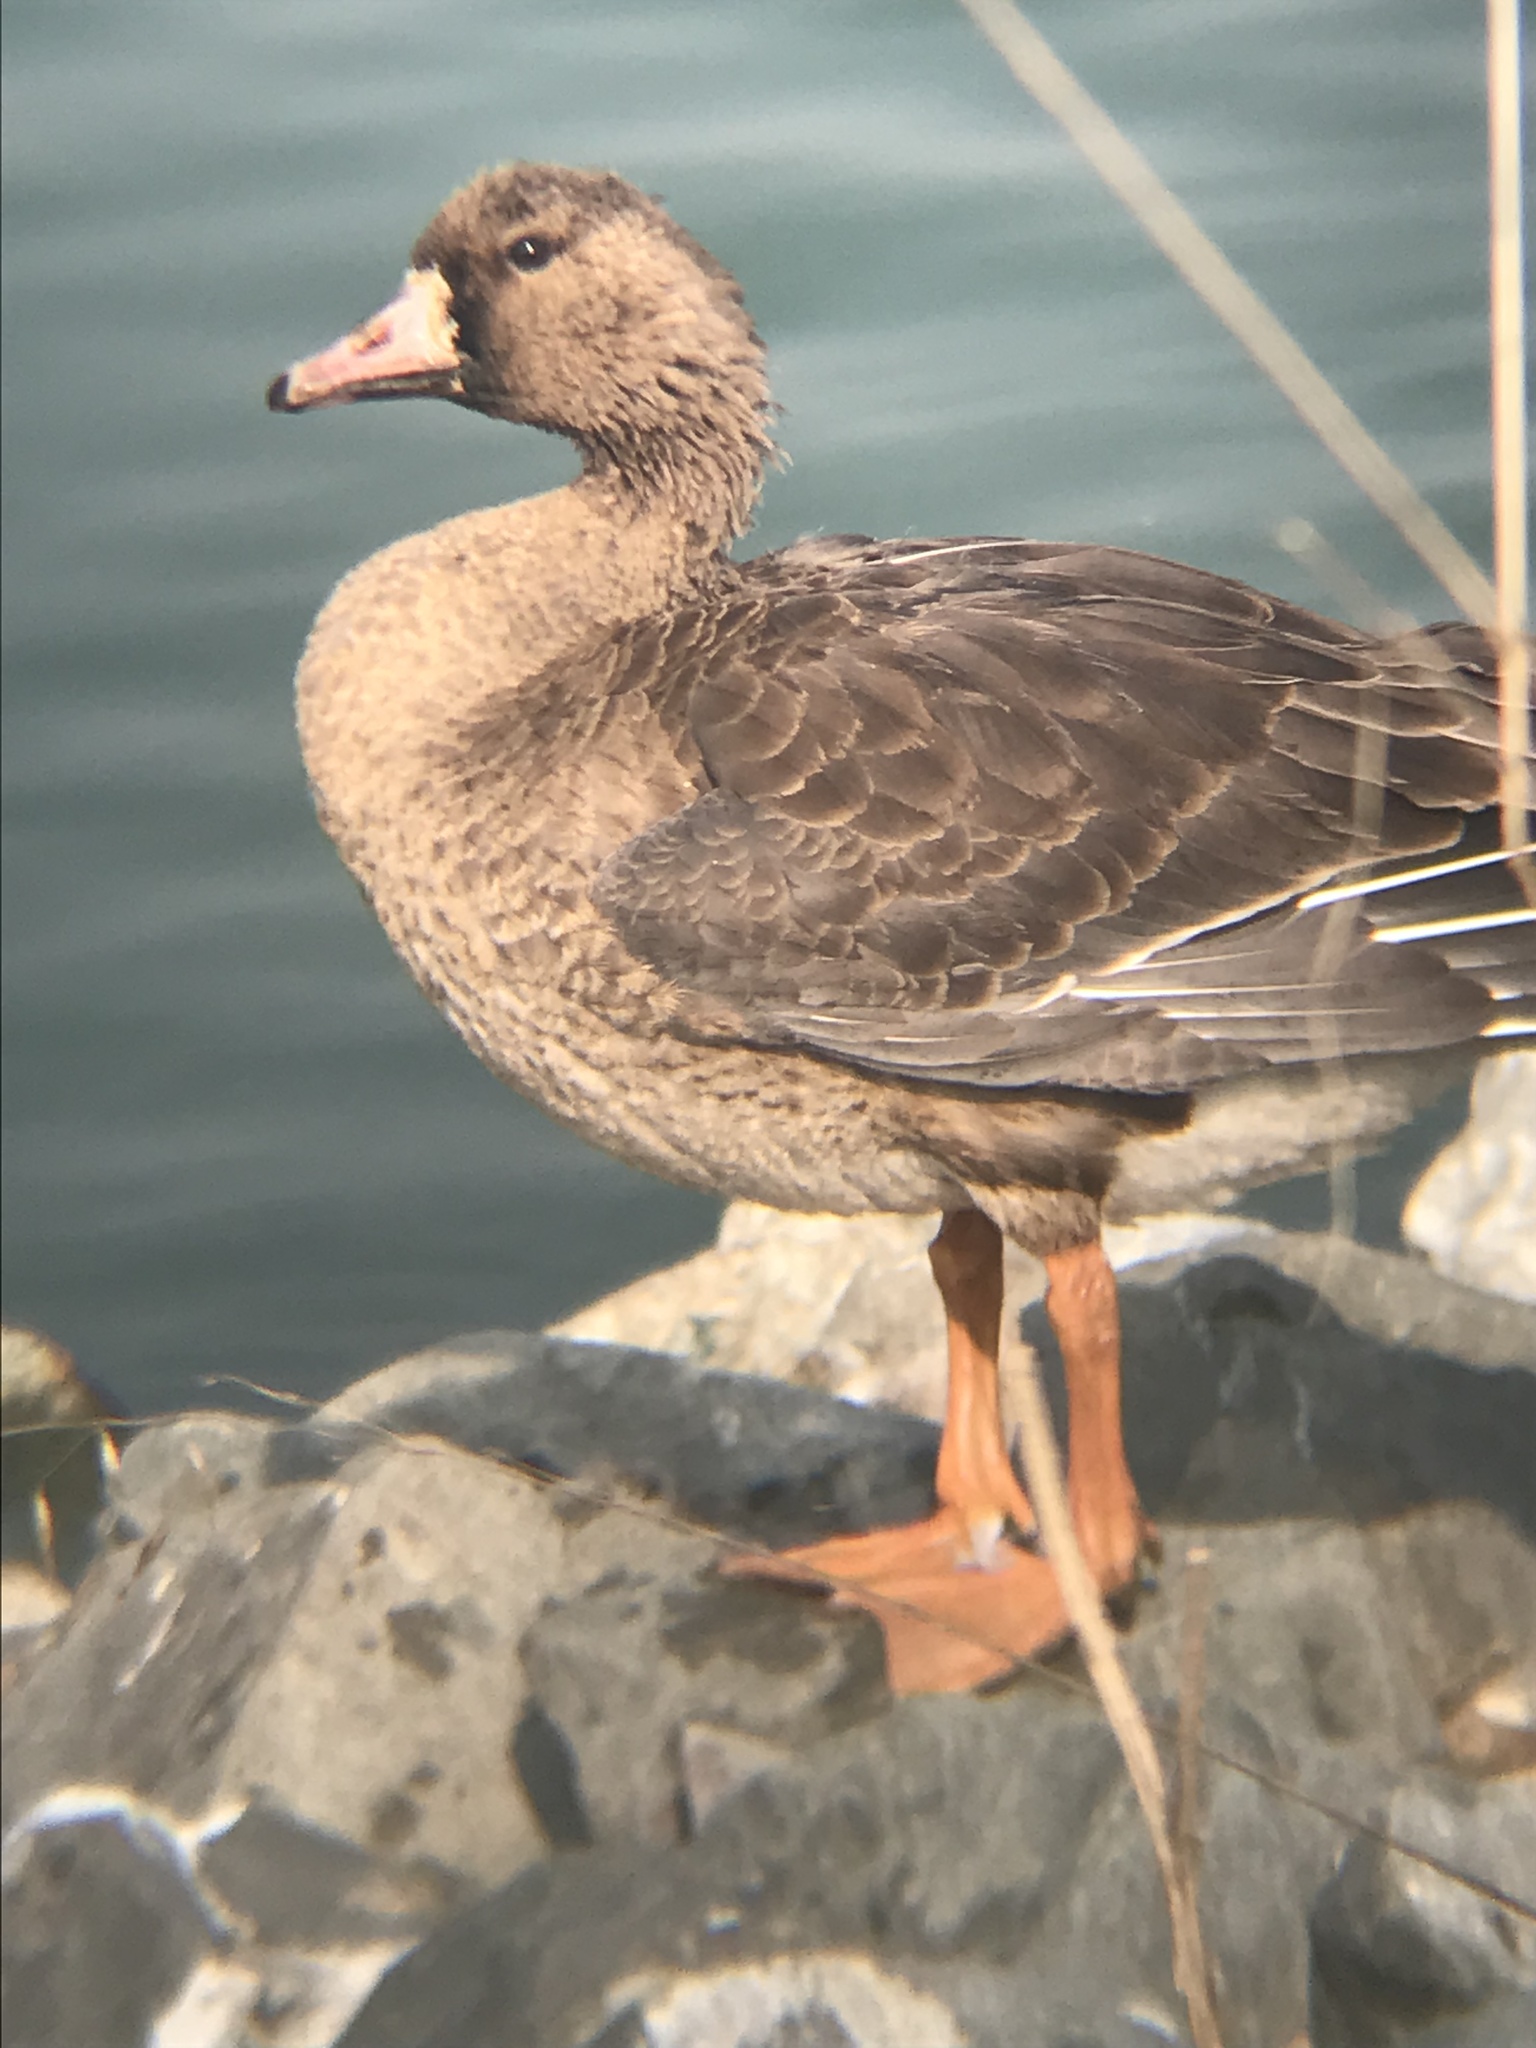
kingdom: Animalia
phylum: Chordata
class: Aves
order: Anseriformes
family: Anatidae
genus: Anser
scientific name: Anser albifrons
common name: Greater white-fronted goose
